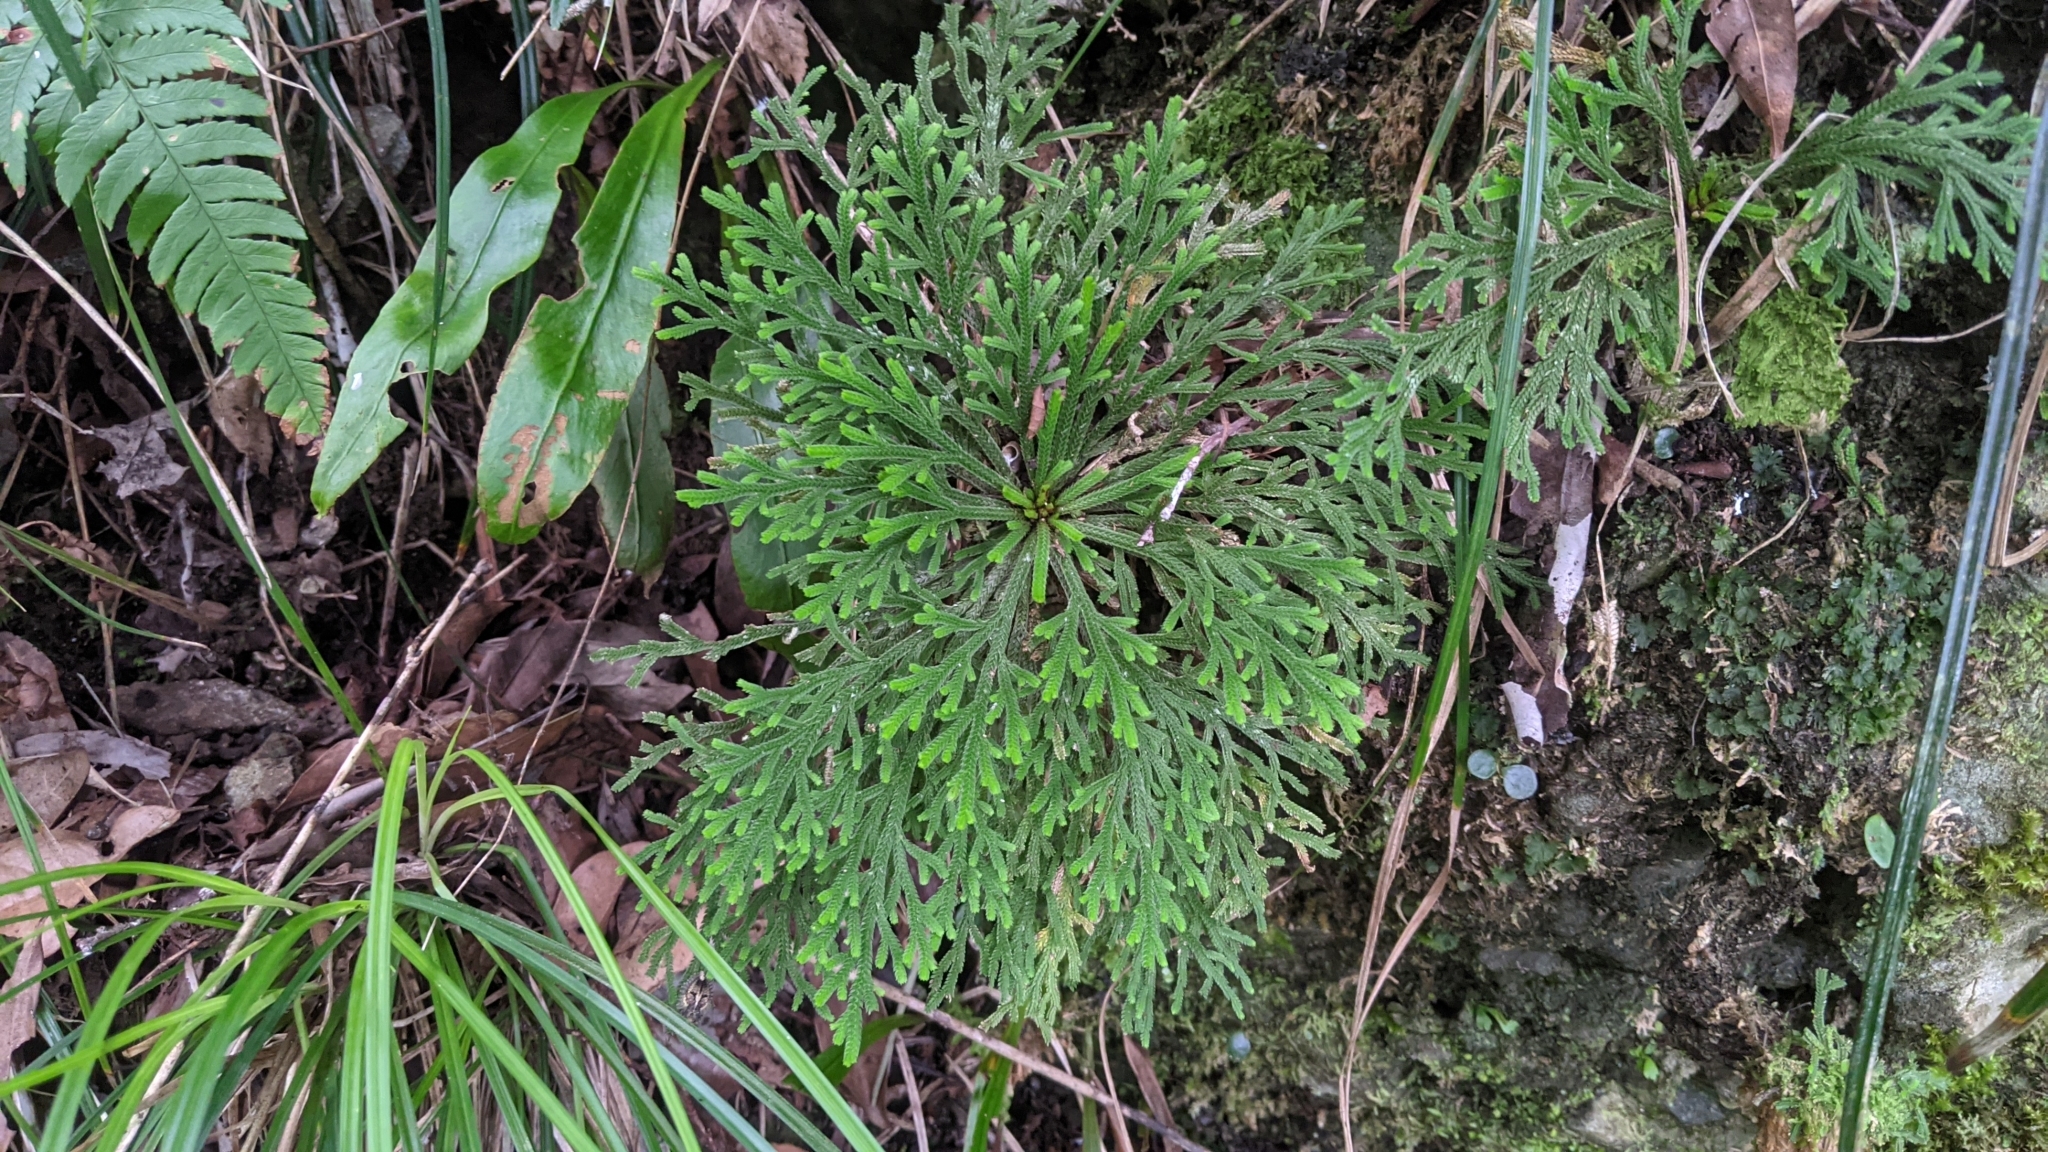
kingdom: Plantae
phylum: Tracheophyta
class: Lycopodiopsida
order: Selaginellales
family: Selaginellaceae
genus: Selaginella
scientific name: Selaginella tamariscina
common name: Little-club-moss
